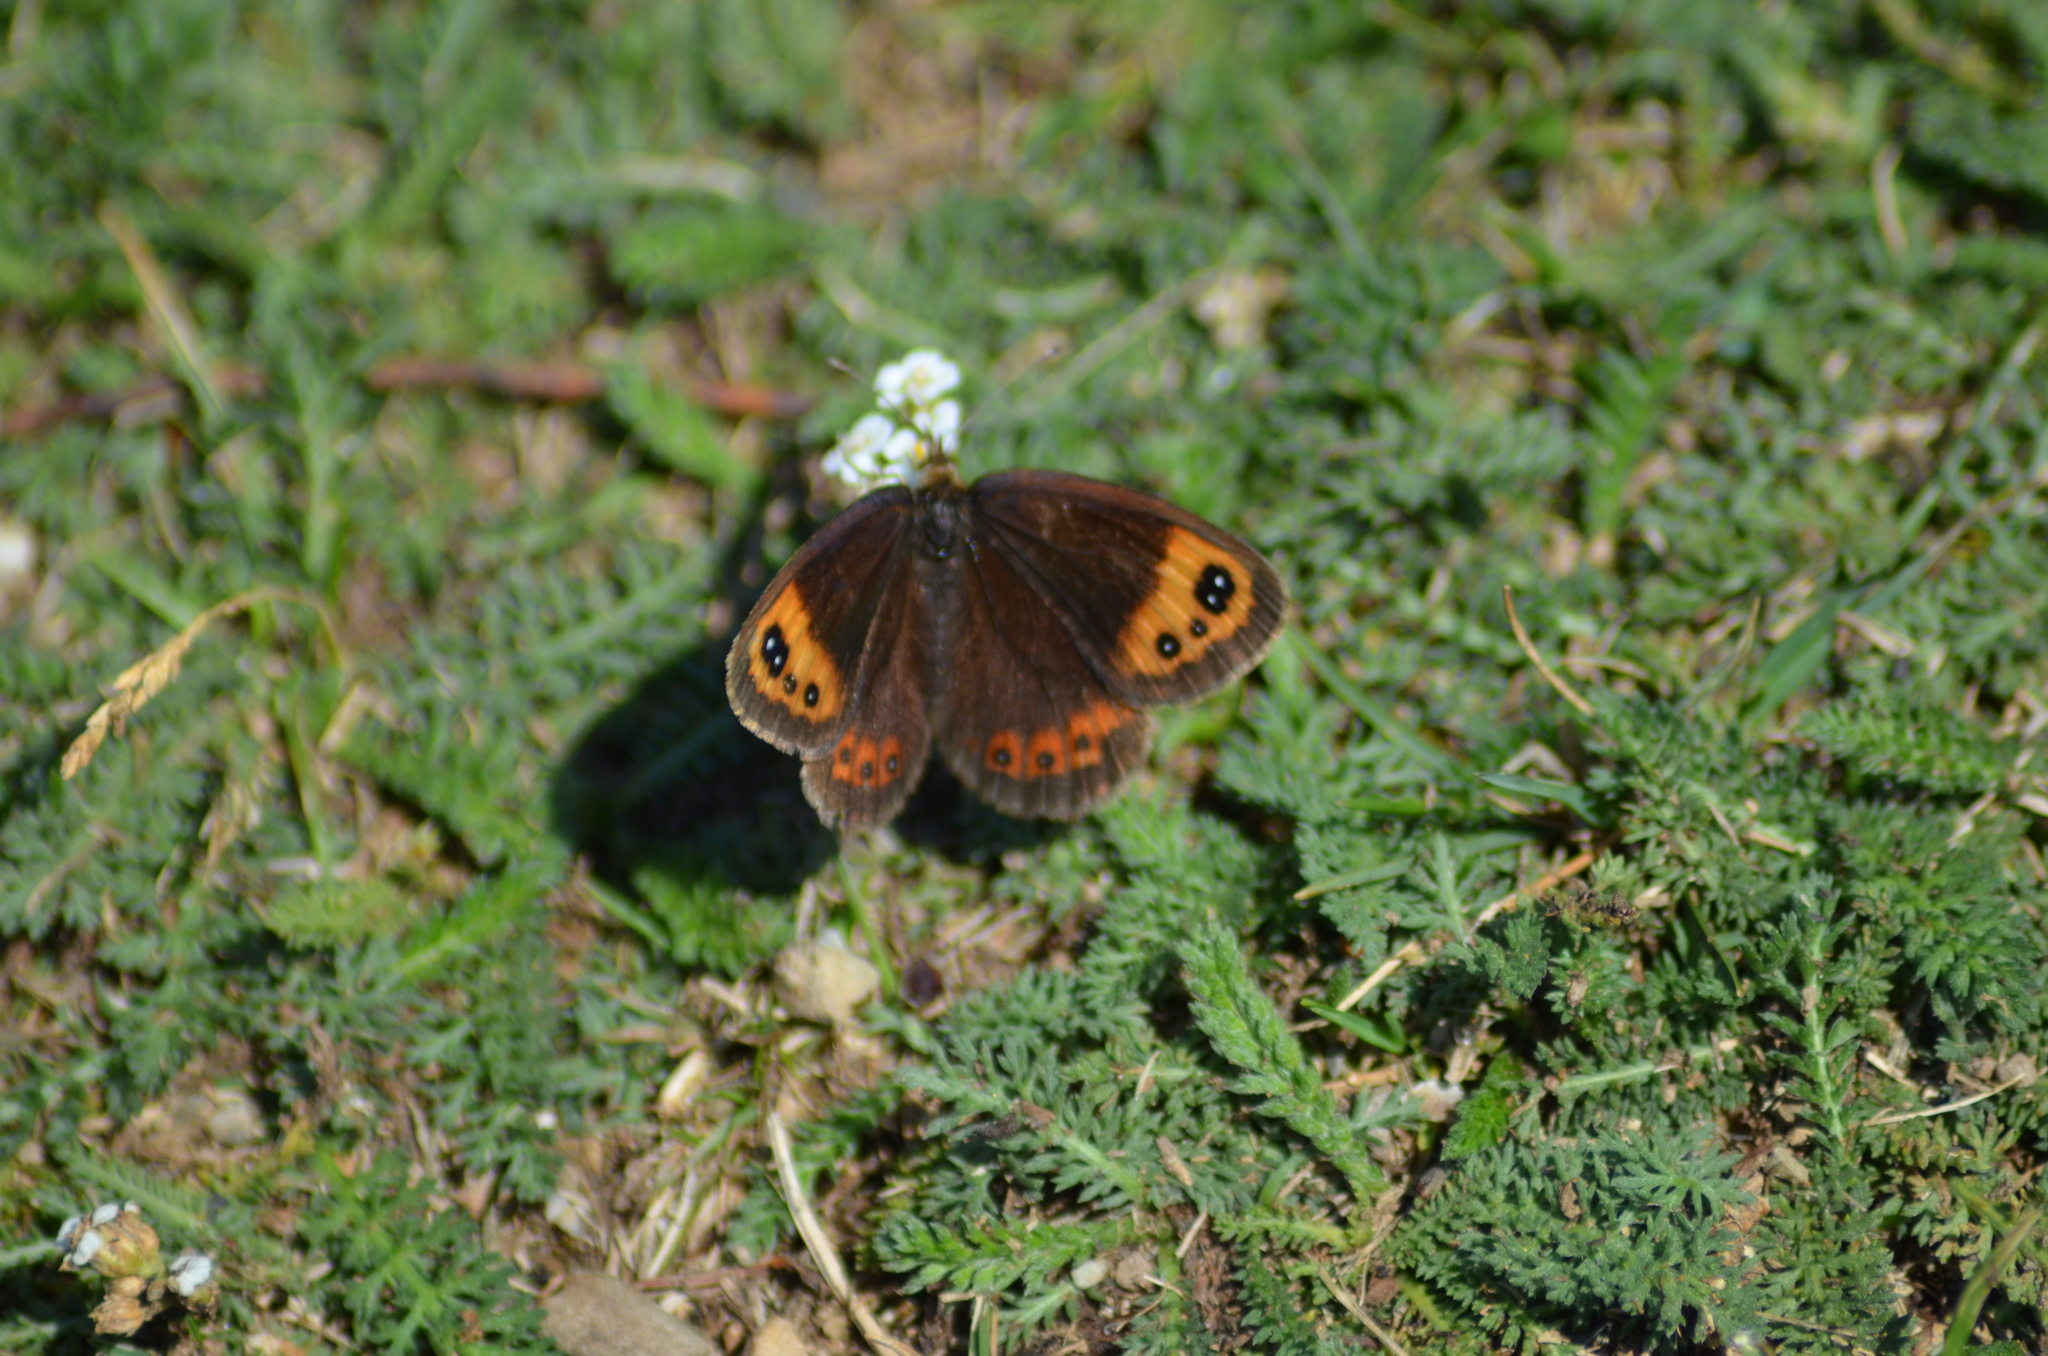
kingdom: Animalia
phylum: Arthropoda
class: Insecta
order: Lepidoptera
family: Nymphalidae
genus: Erebia
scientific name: Erebia neoridas
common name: Autumn ringlet
